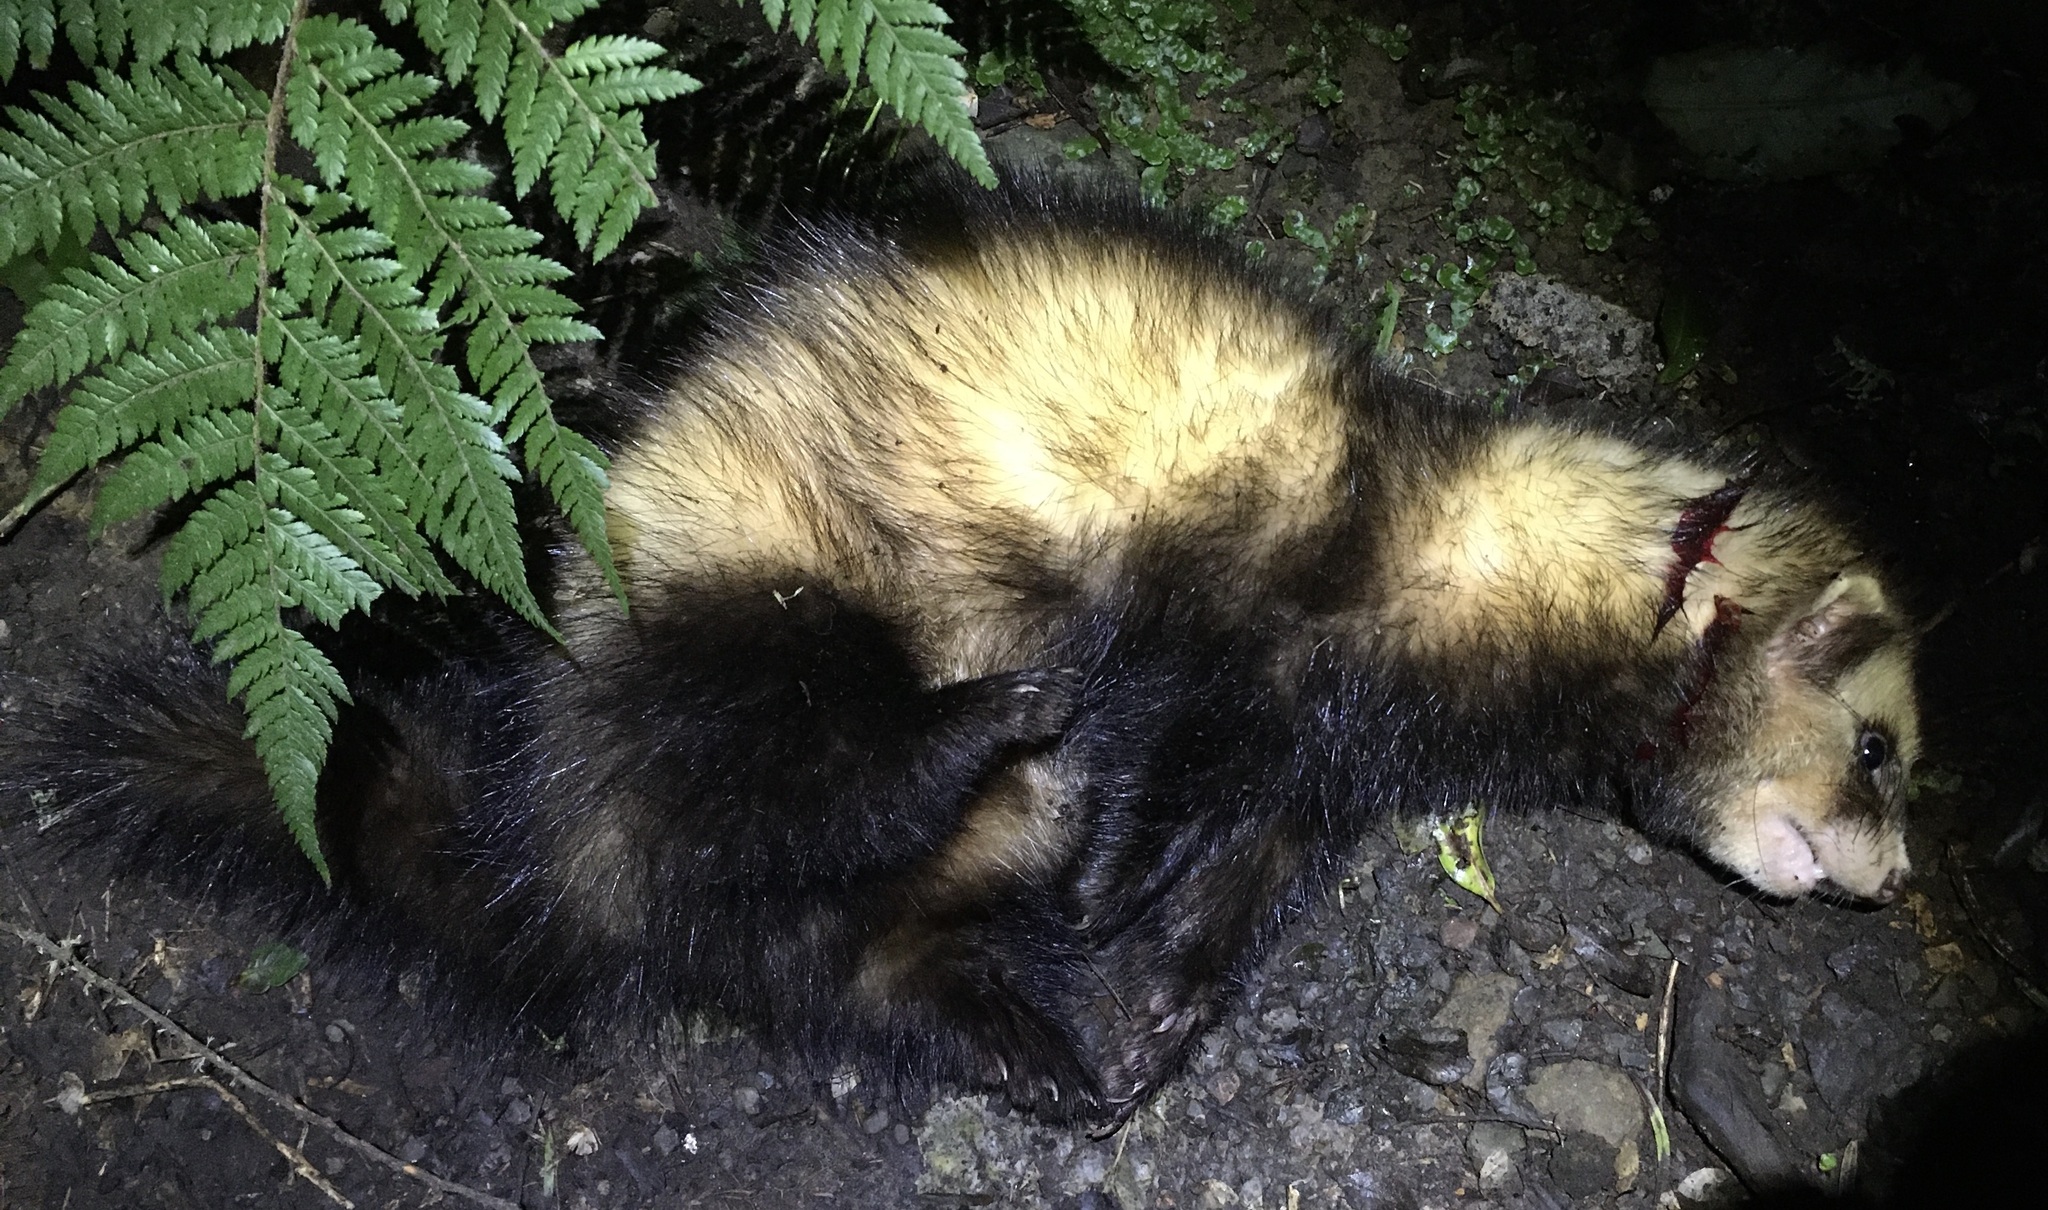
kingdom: Animalia
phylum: Chordata
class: Mammalia
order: Carnivora
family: Mustelidae
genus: Mustela
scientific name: Mustela putorius
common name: European polecat
